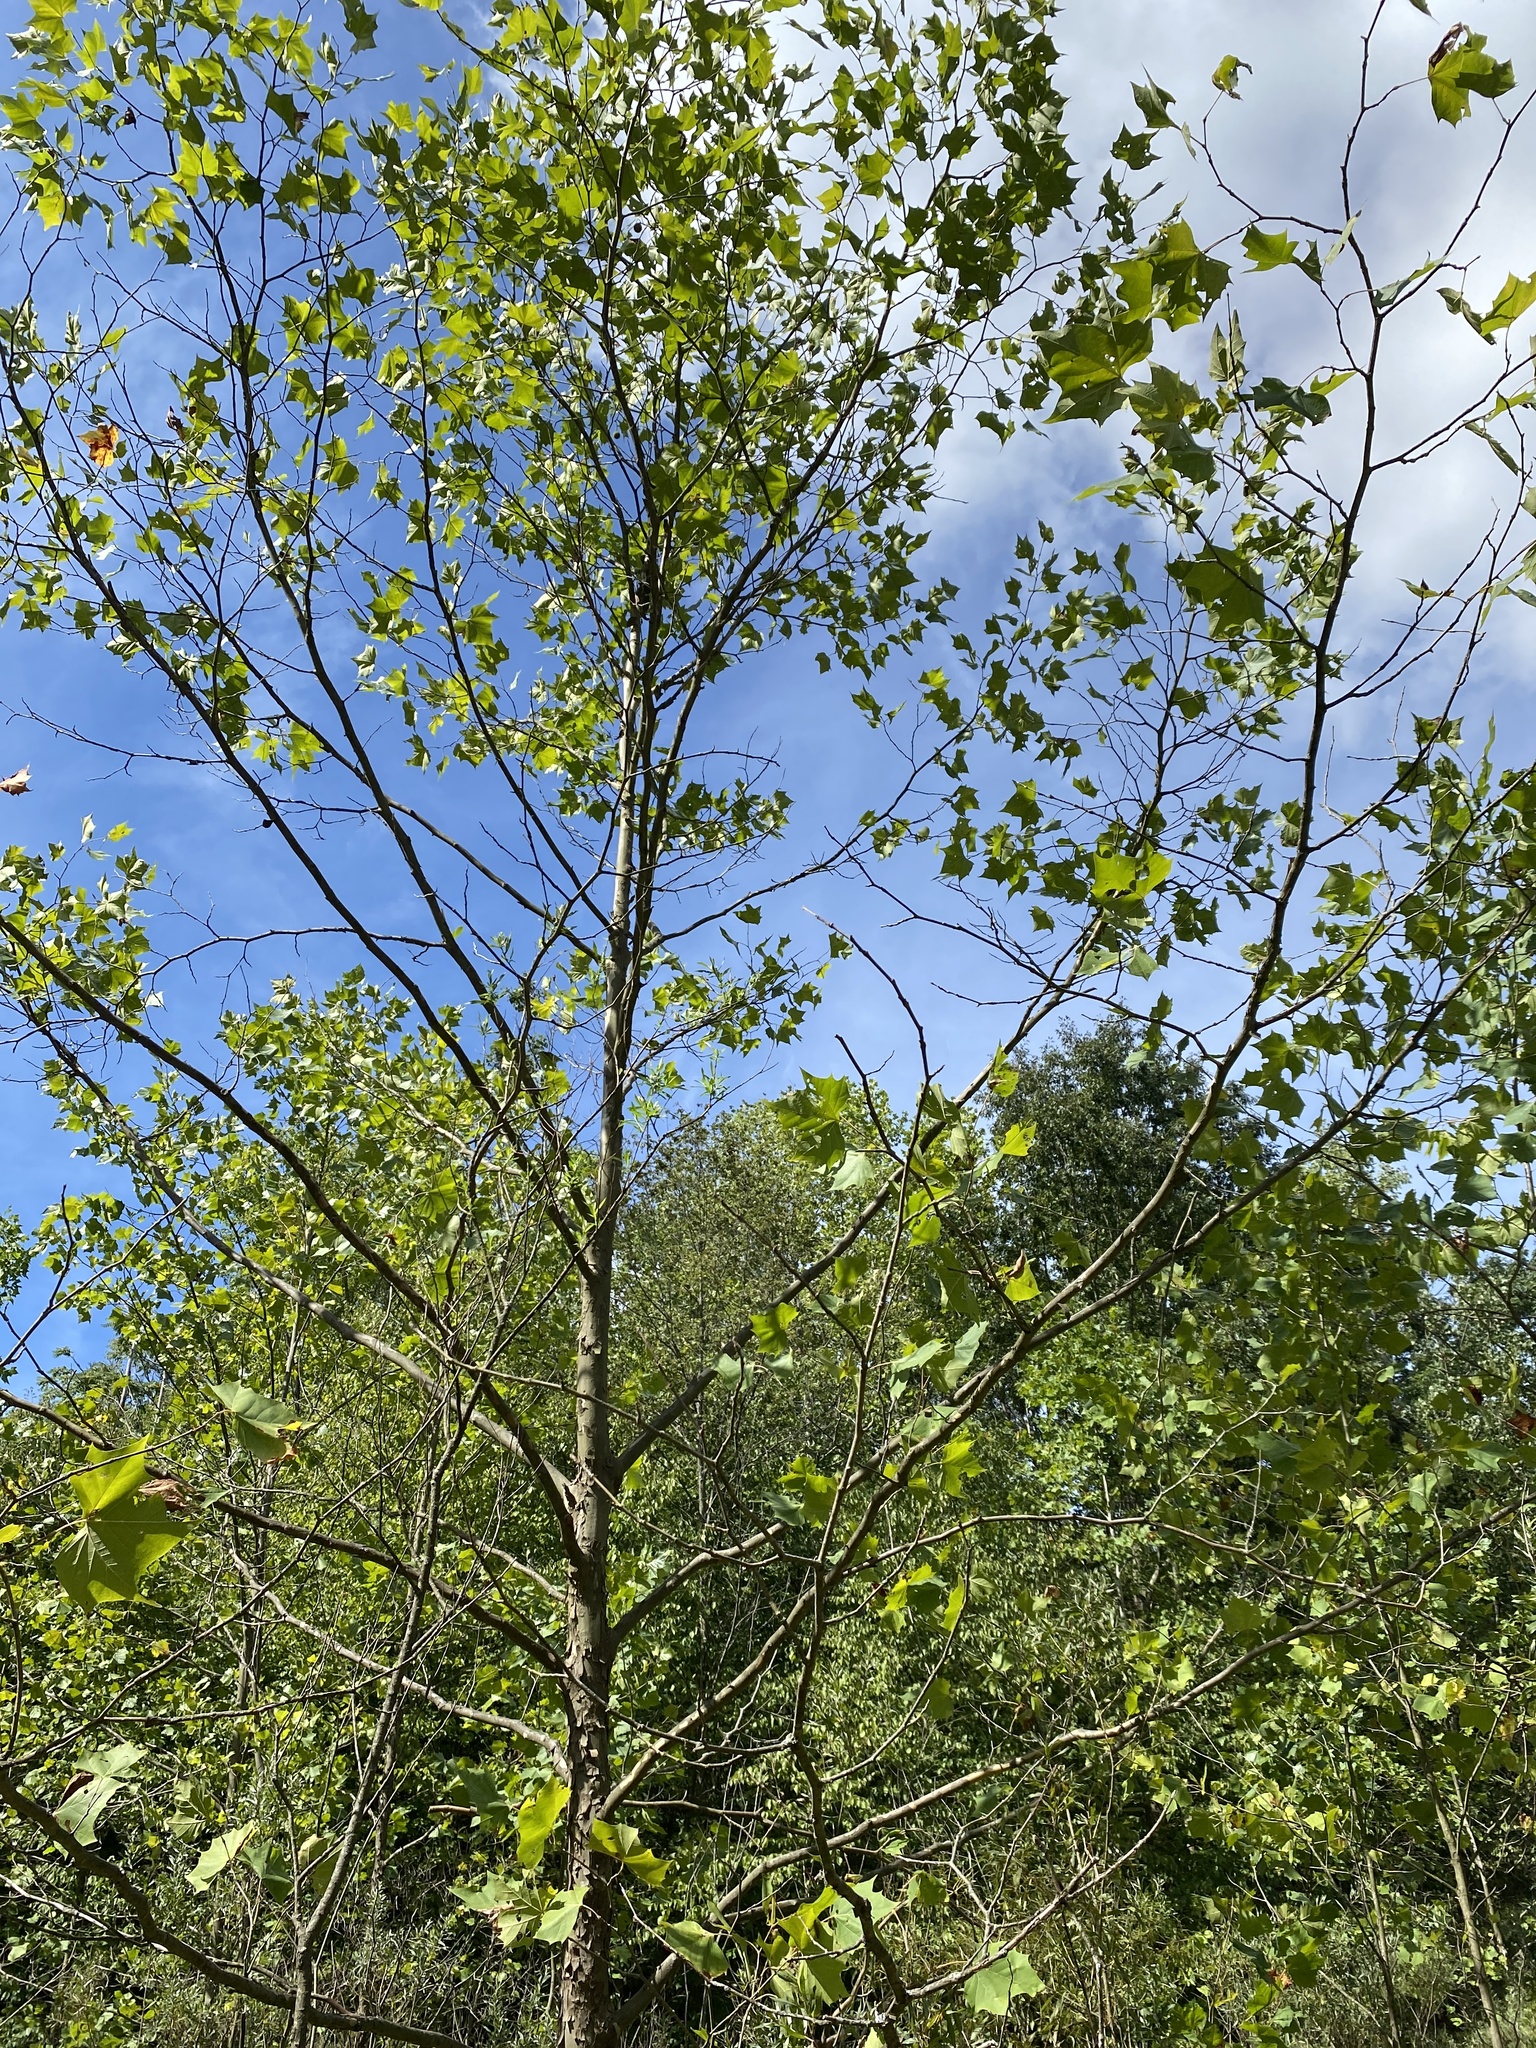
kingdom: Plantae
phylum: Tracheophyta
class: Magnoliopsida
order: Proteales
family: Platanaceae
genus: Platanus
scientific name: Platanus occidentalis
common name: American sycamore
